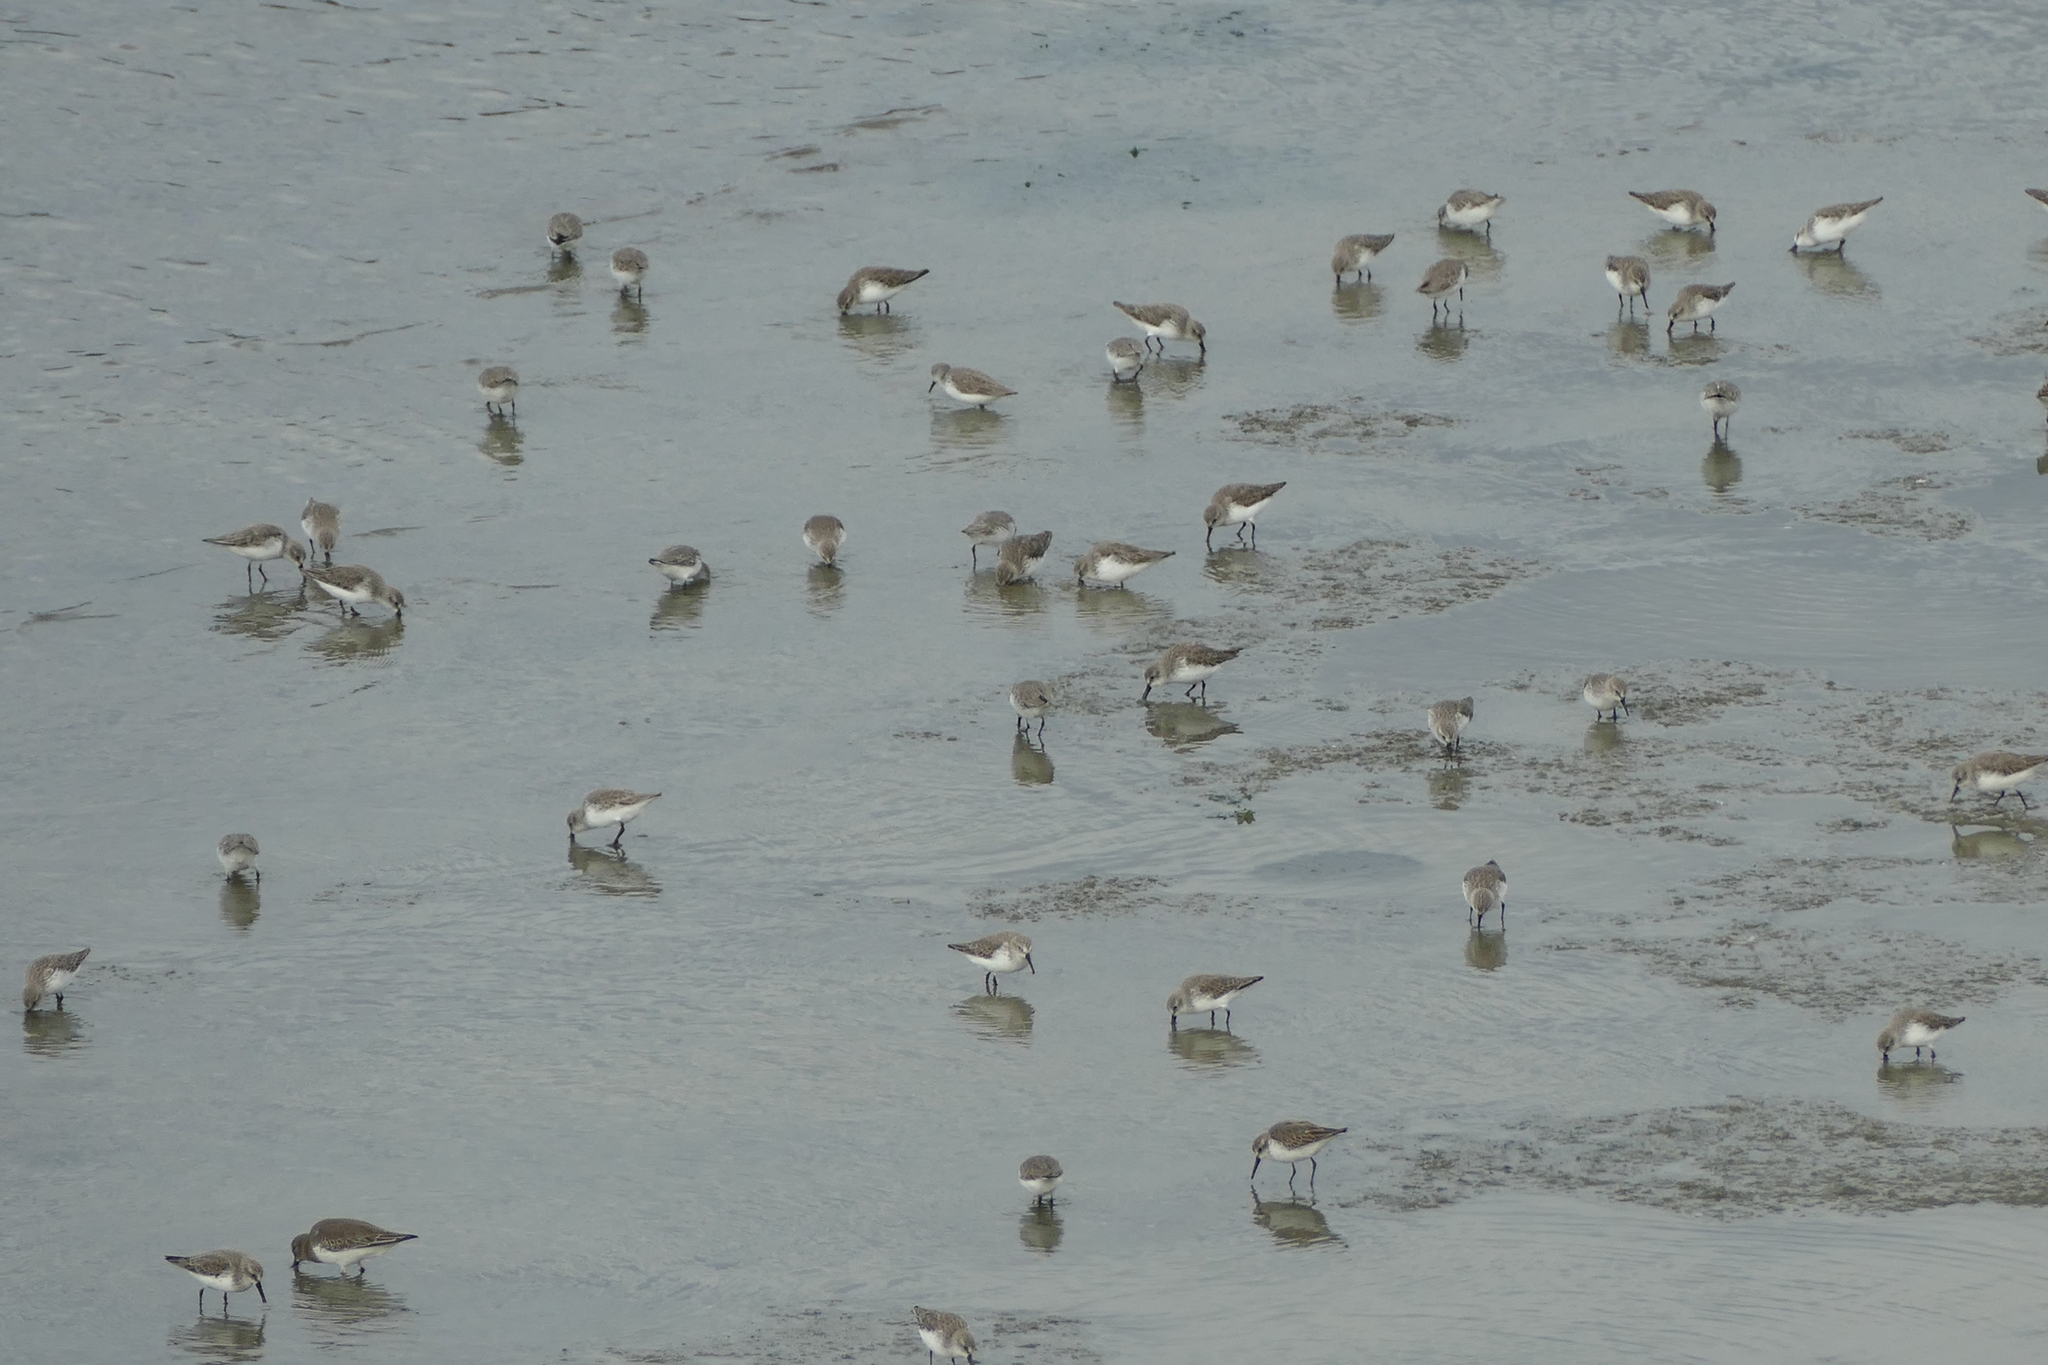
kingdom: Animalia
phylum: Chordata
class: Aves
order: Charadriiformes
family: Scolopacidae
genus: Calidris
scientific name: Calidris mauri
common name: Western sandpiper
